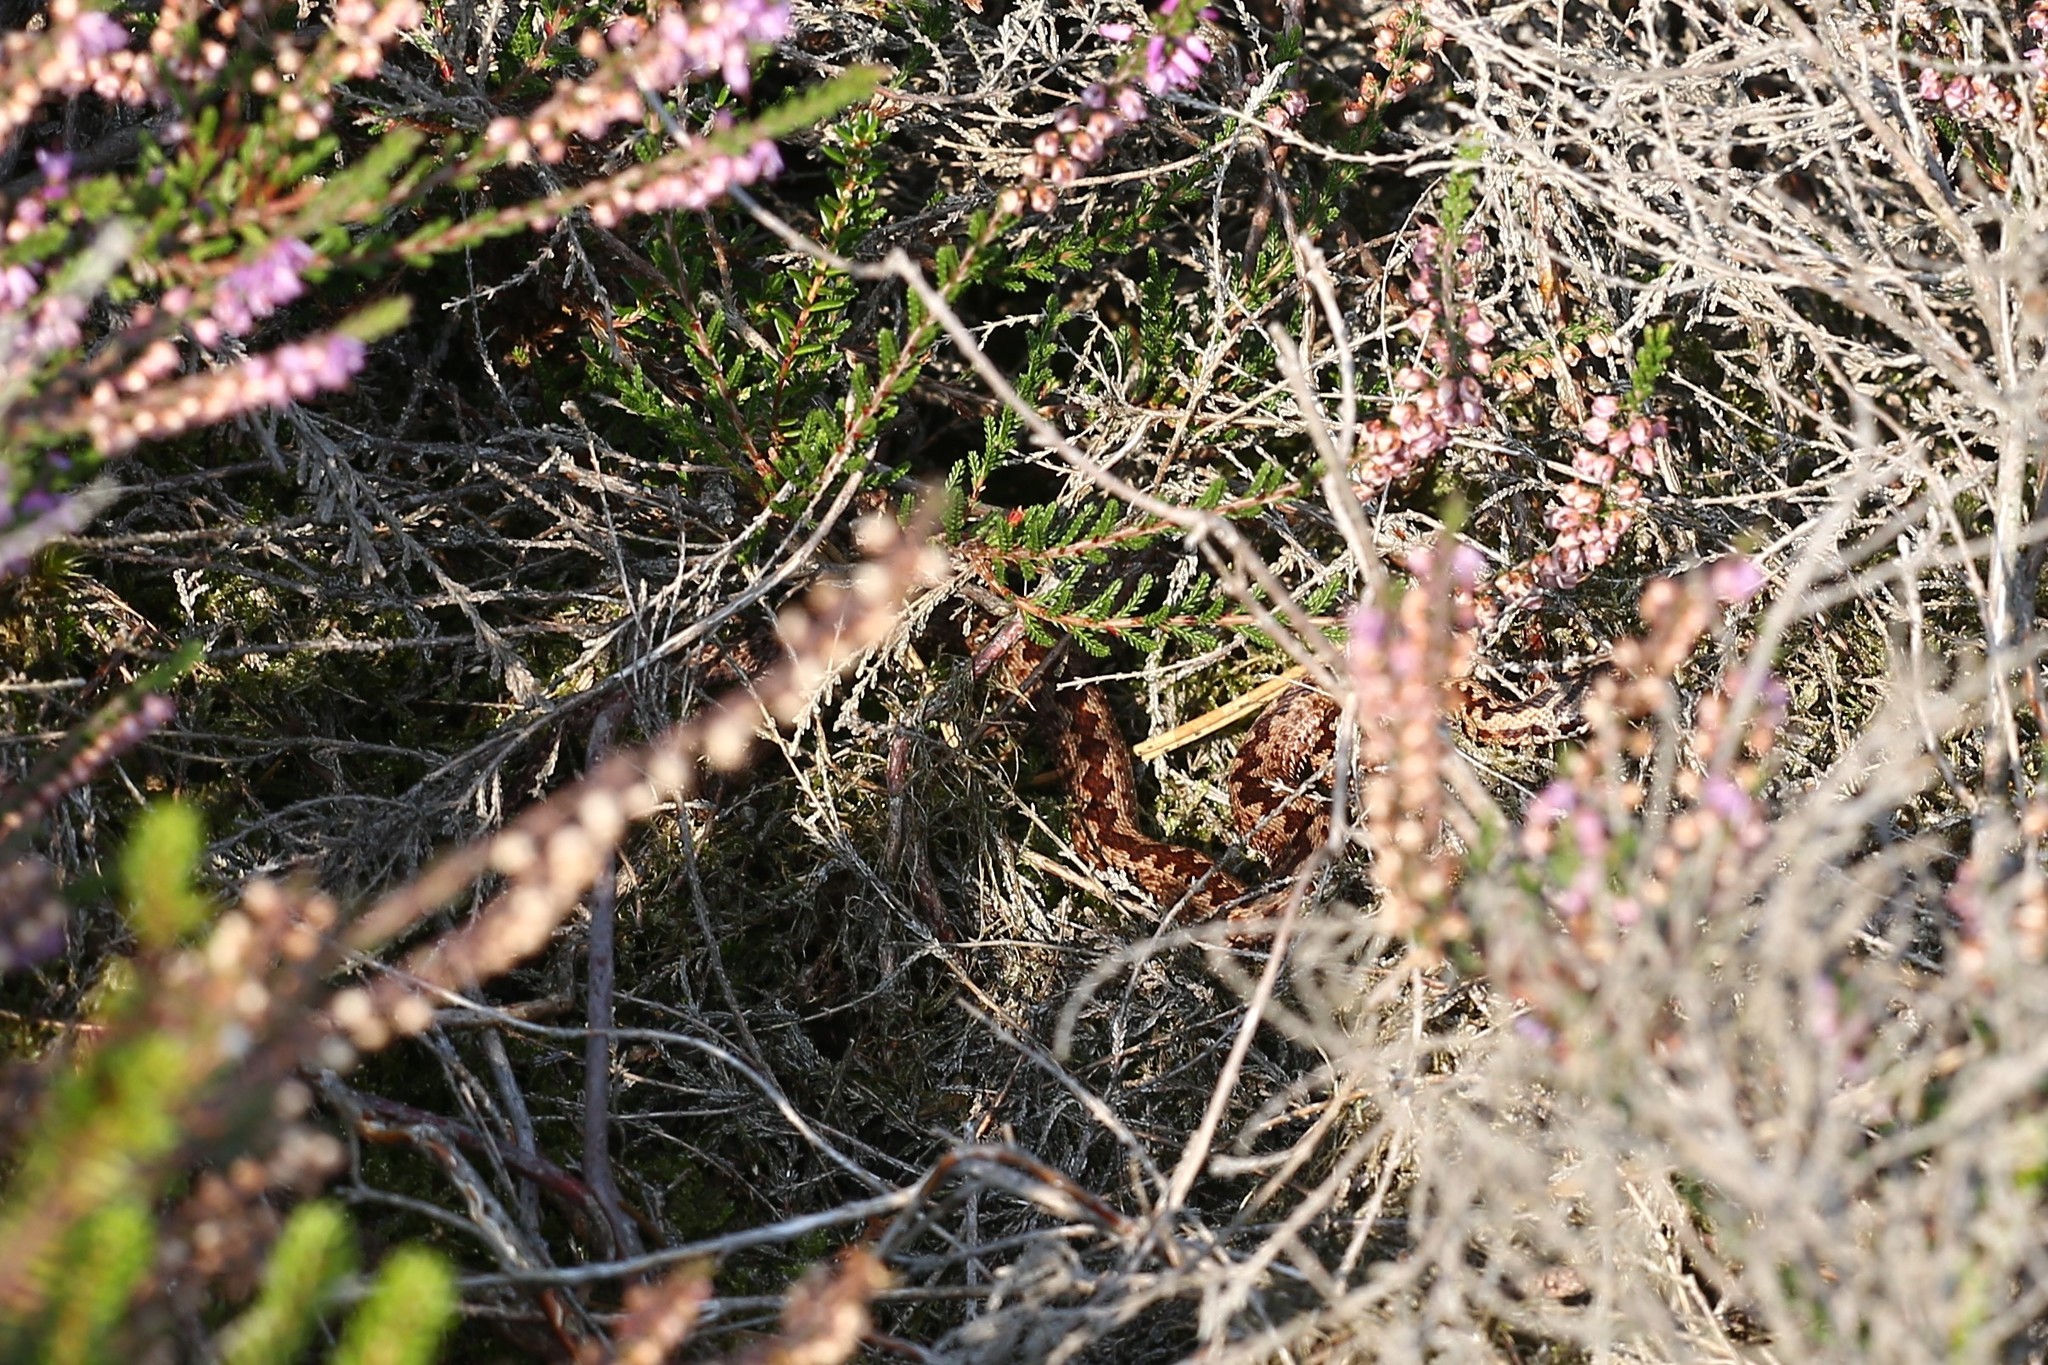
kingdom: Animalia
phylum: Chordata
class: Squamata
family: Viperidae
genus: Vipera
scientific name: Vipera berus
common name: Adder
